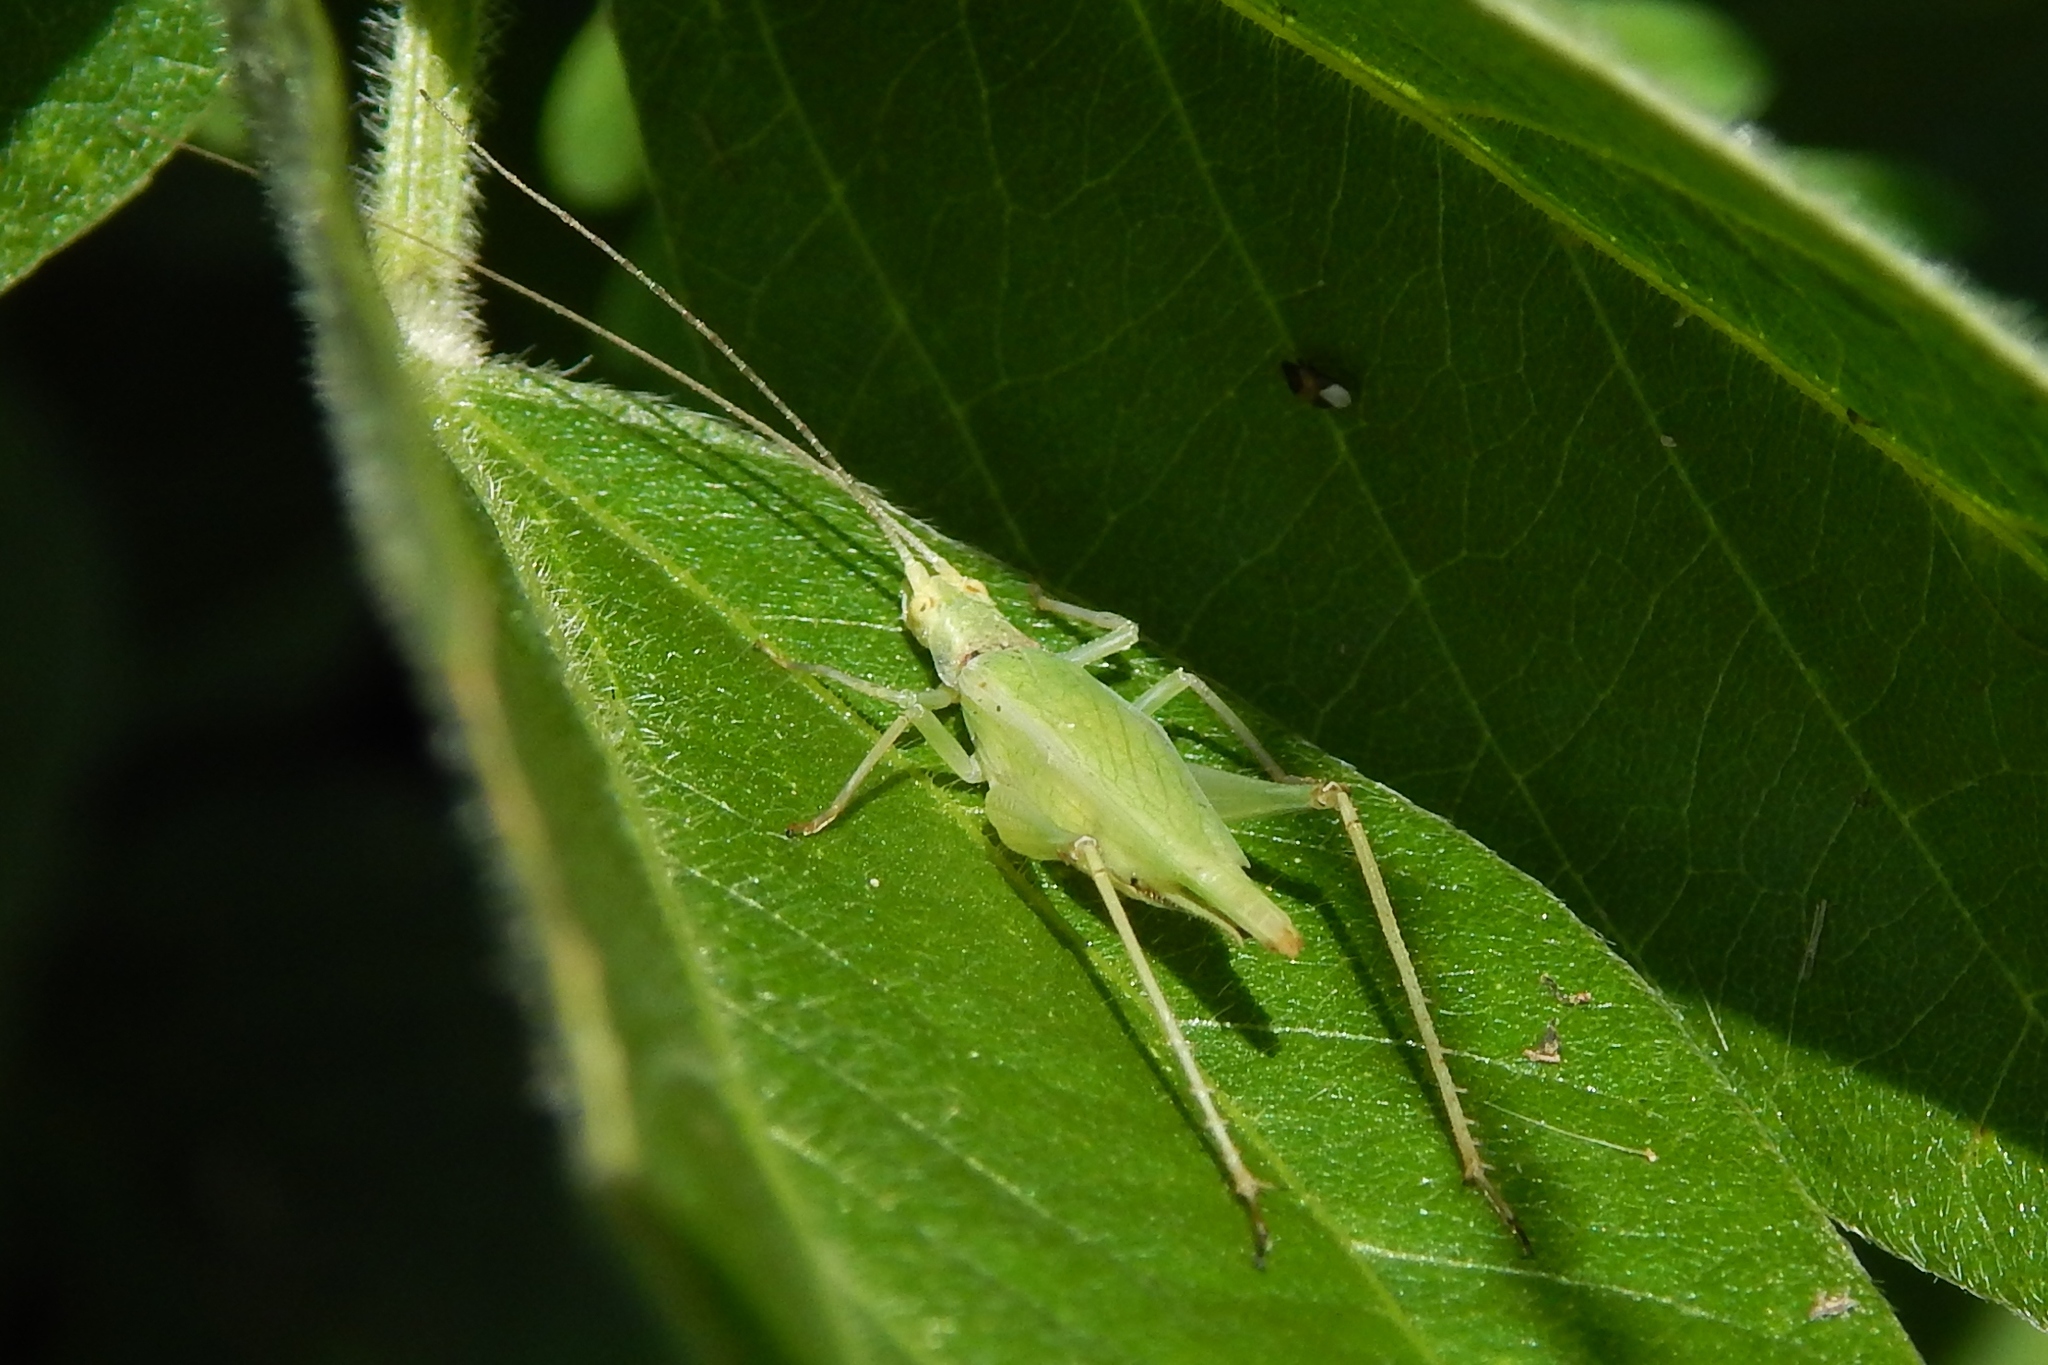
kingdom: Animalia
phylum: Arthropoda
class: Insecta
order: Orthoptera
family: Gryllidae
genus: Oecanthus
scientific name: Oecanthus
